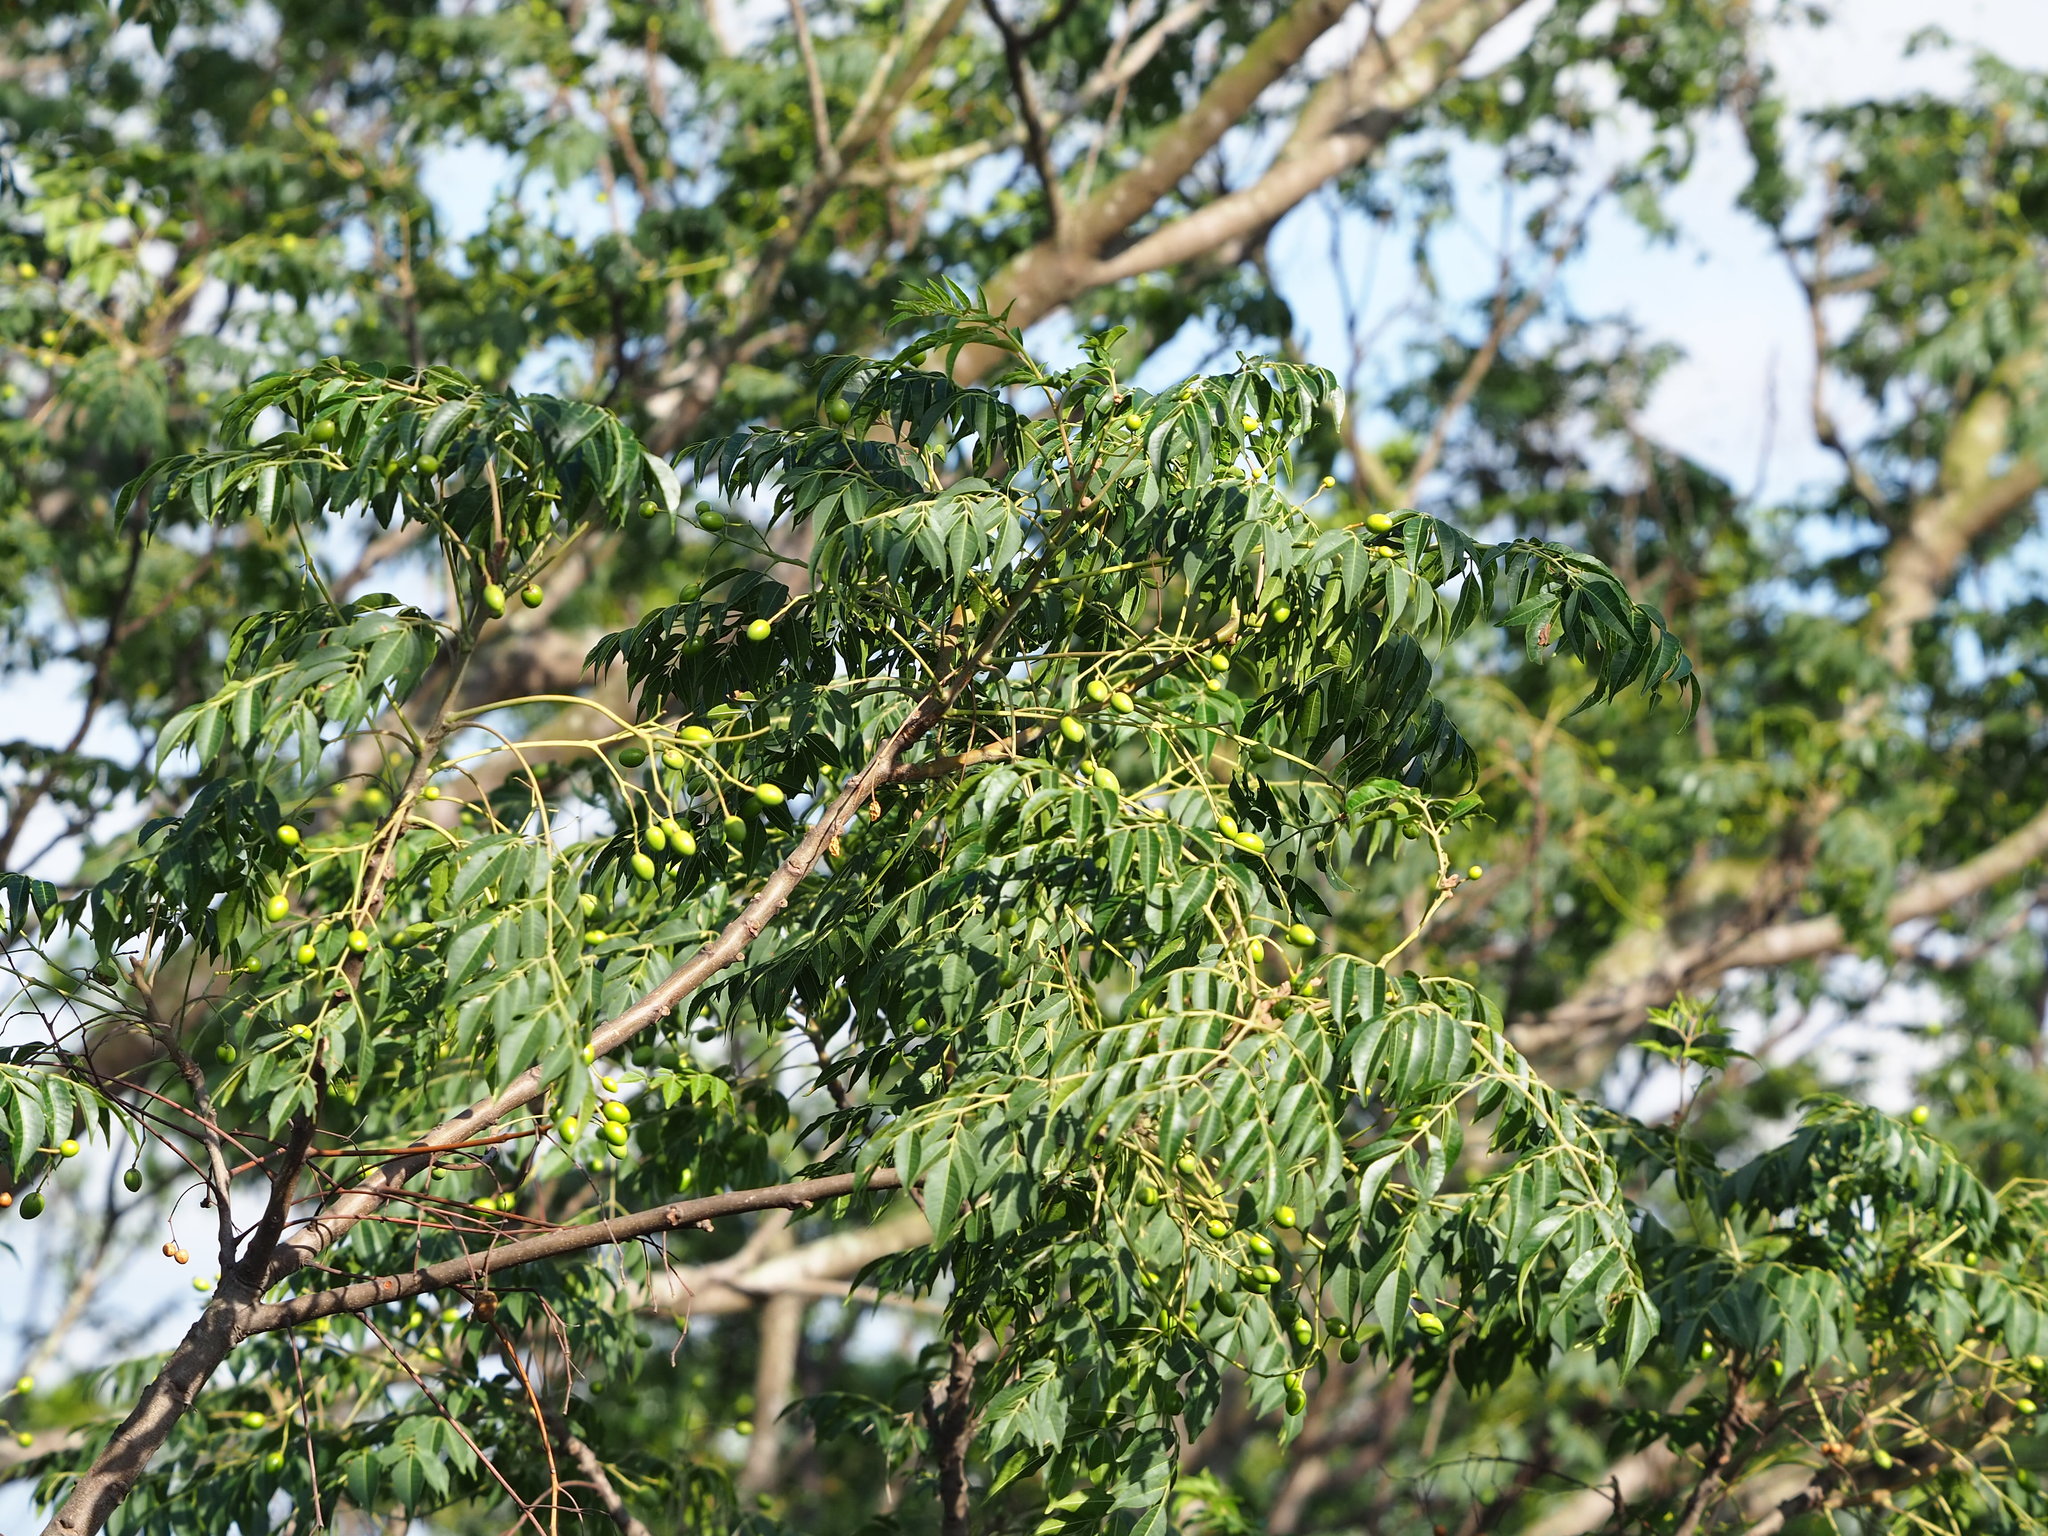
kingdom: Plantae
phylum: Tracheophyta
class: Magnoliopsida
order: Sapindales
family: Meliaceae
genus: Melia
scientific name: Melia azedarach
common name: Chinaberrytree
